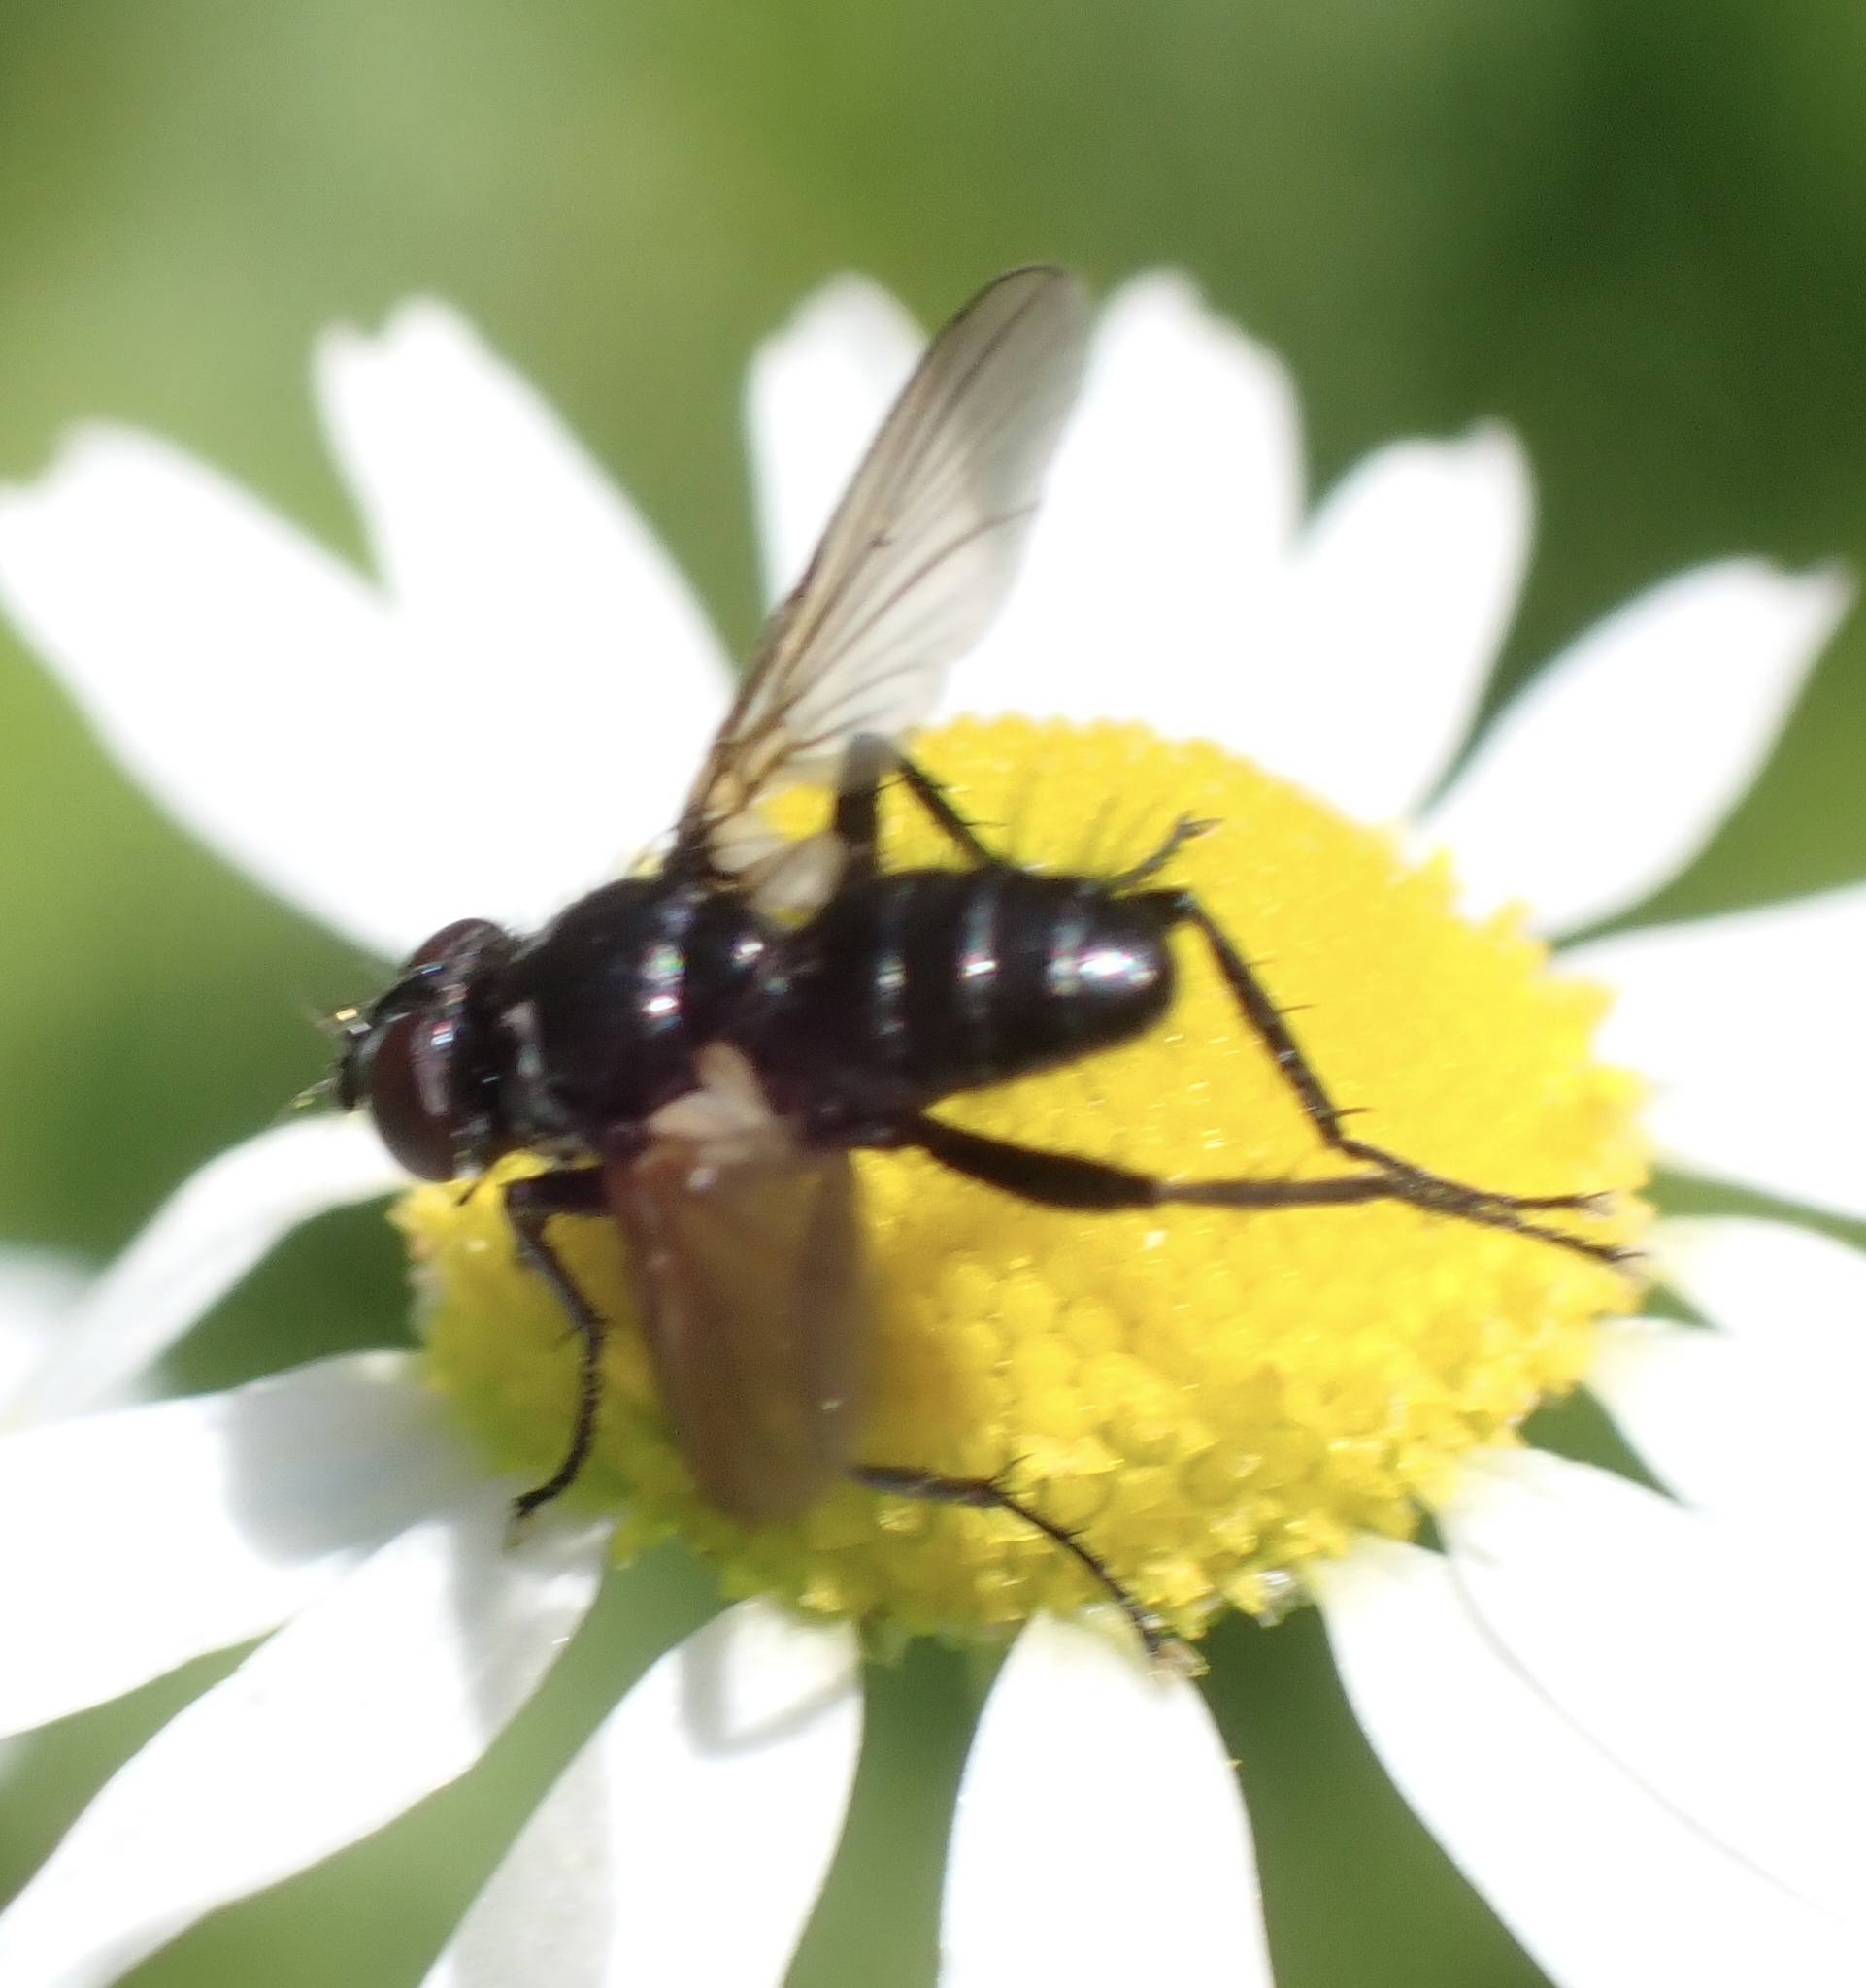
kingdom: Animalia
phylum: Arthropoda
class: Insecta
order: Diptera
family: Tachinidae
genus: Phania
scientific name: Phania funesta
